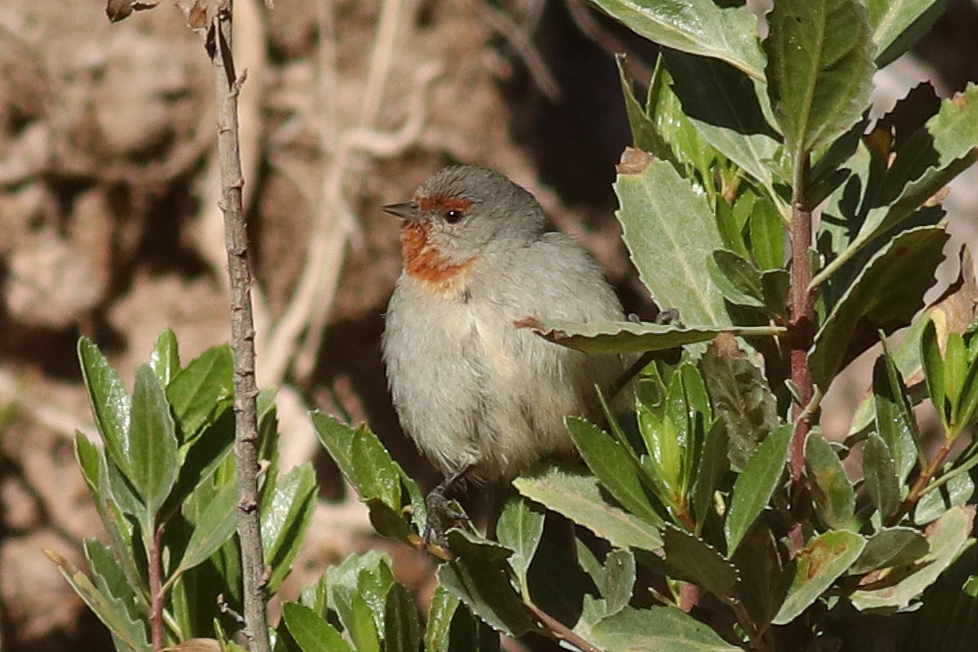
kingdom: Animalia
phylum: Chordata
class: Aves
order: Passeriformes
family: Thraupidae
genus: Conirostrum
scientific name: Conirostrum tamarugense
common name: Tamarugo conebill
